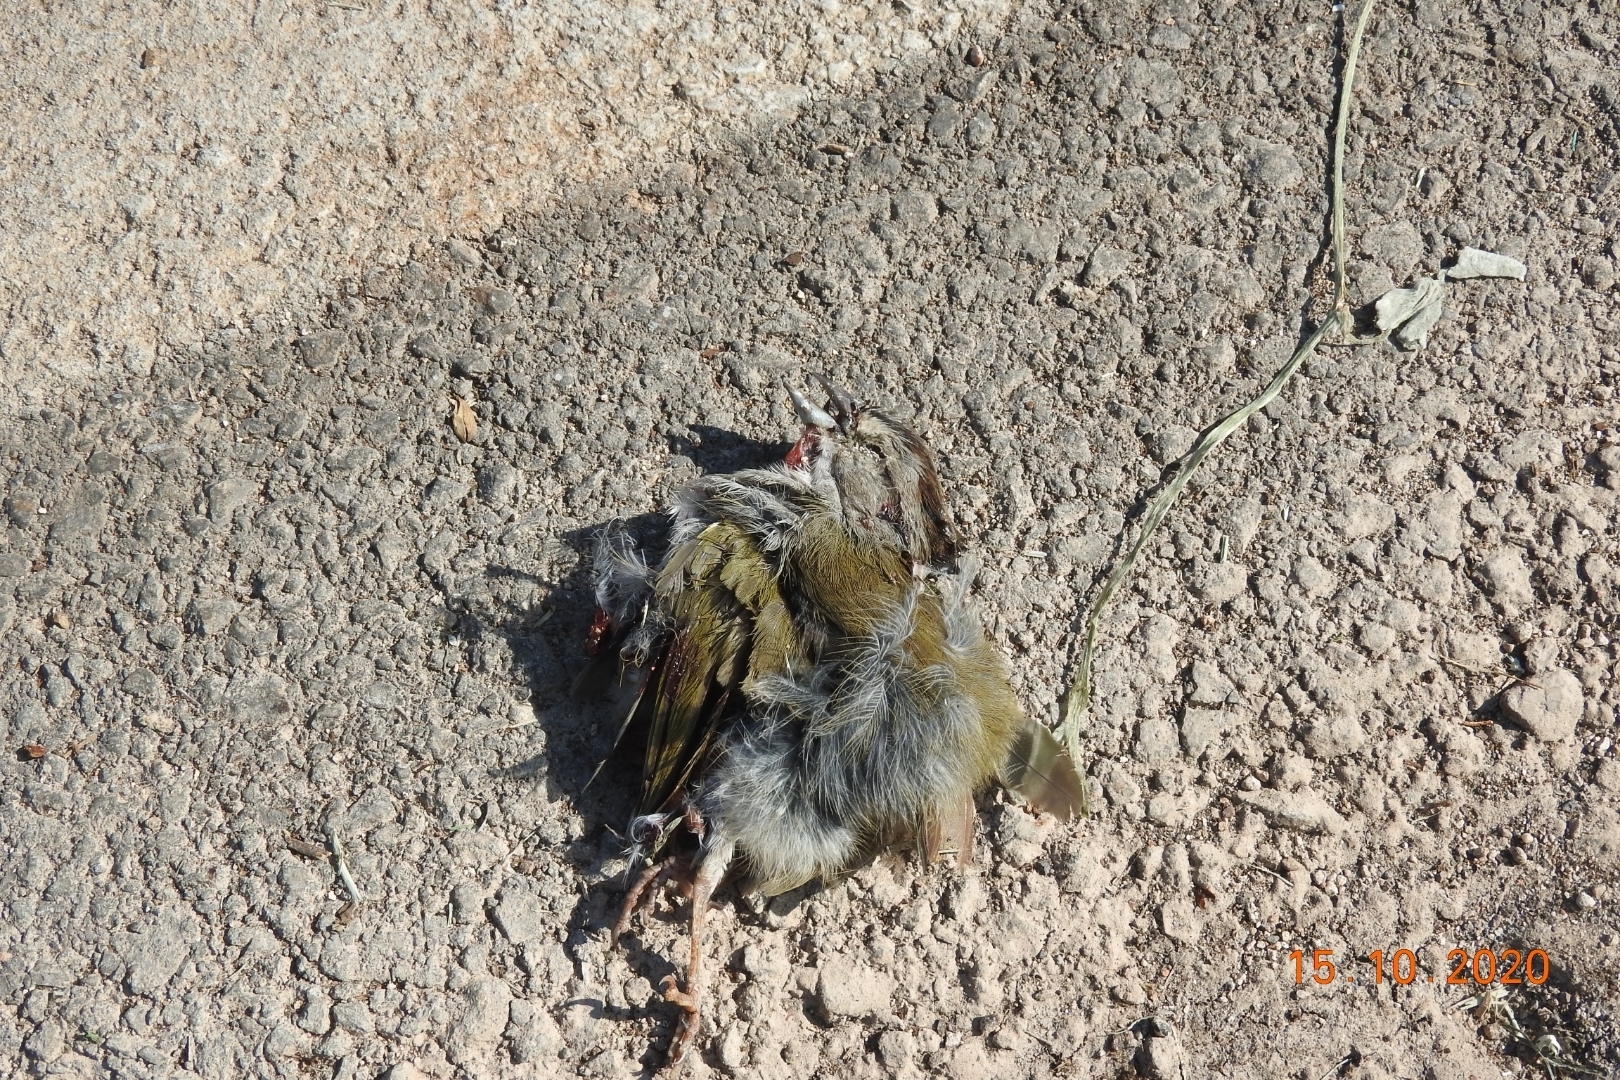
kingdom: Animalia
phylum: Chordata
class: Aves
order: Passeriformes
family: Passerellidae
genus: Arremonops
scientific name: Arremonops rufivirgatus
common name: Olive sparrow
